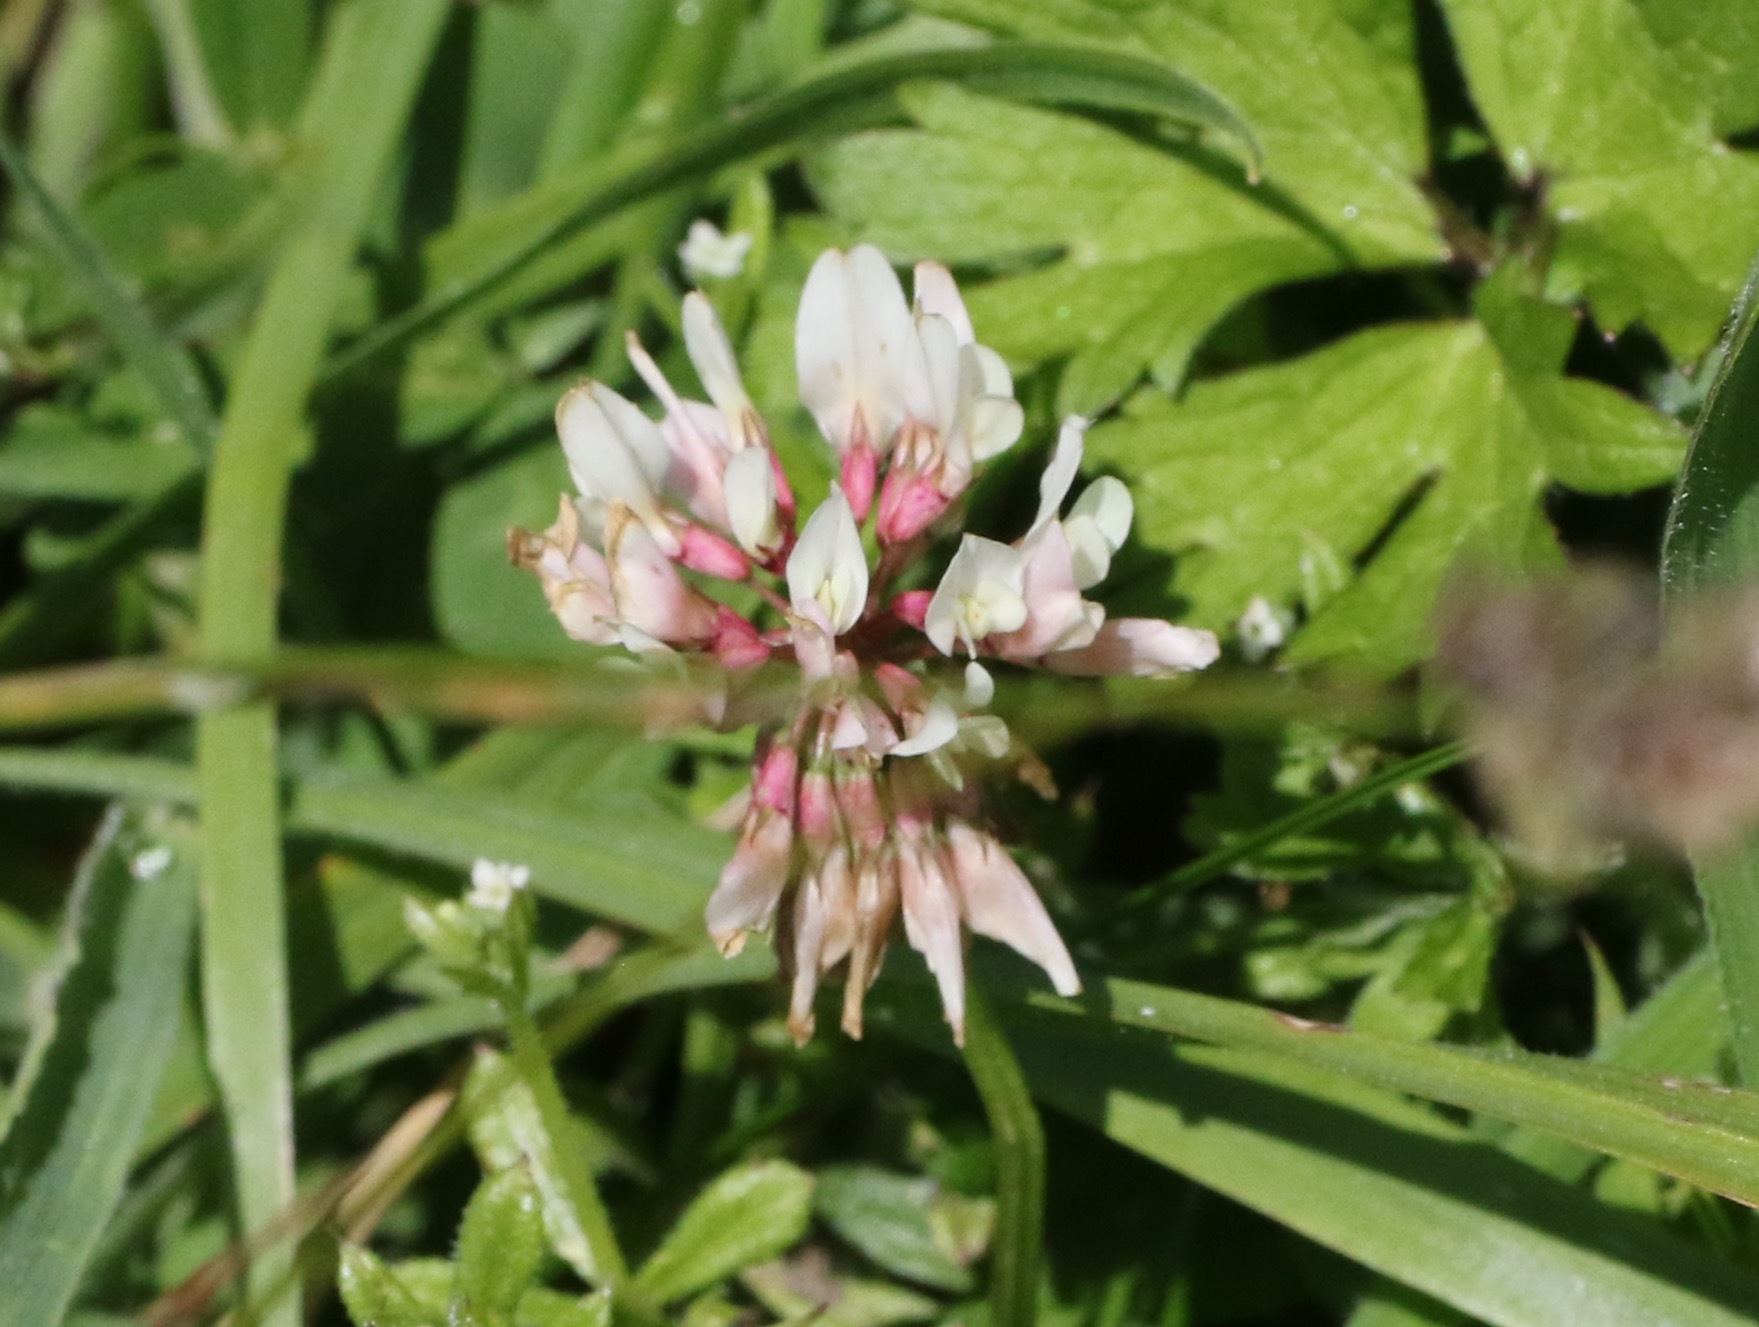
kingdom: Plantae
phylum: Tracheophyta
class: Magnoliopsida
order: Fabales
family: Fabaceae
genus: Trifolium
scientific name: Trifolium repens
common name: White clover
